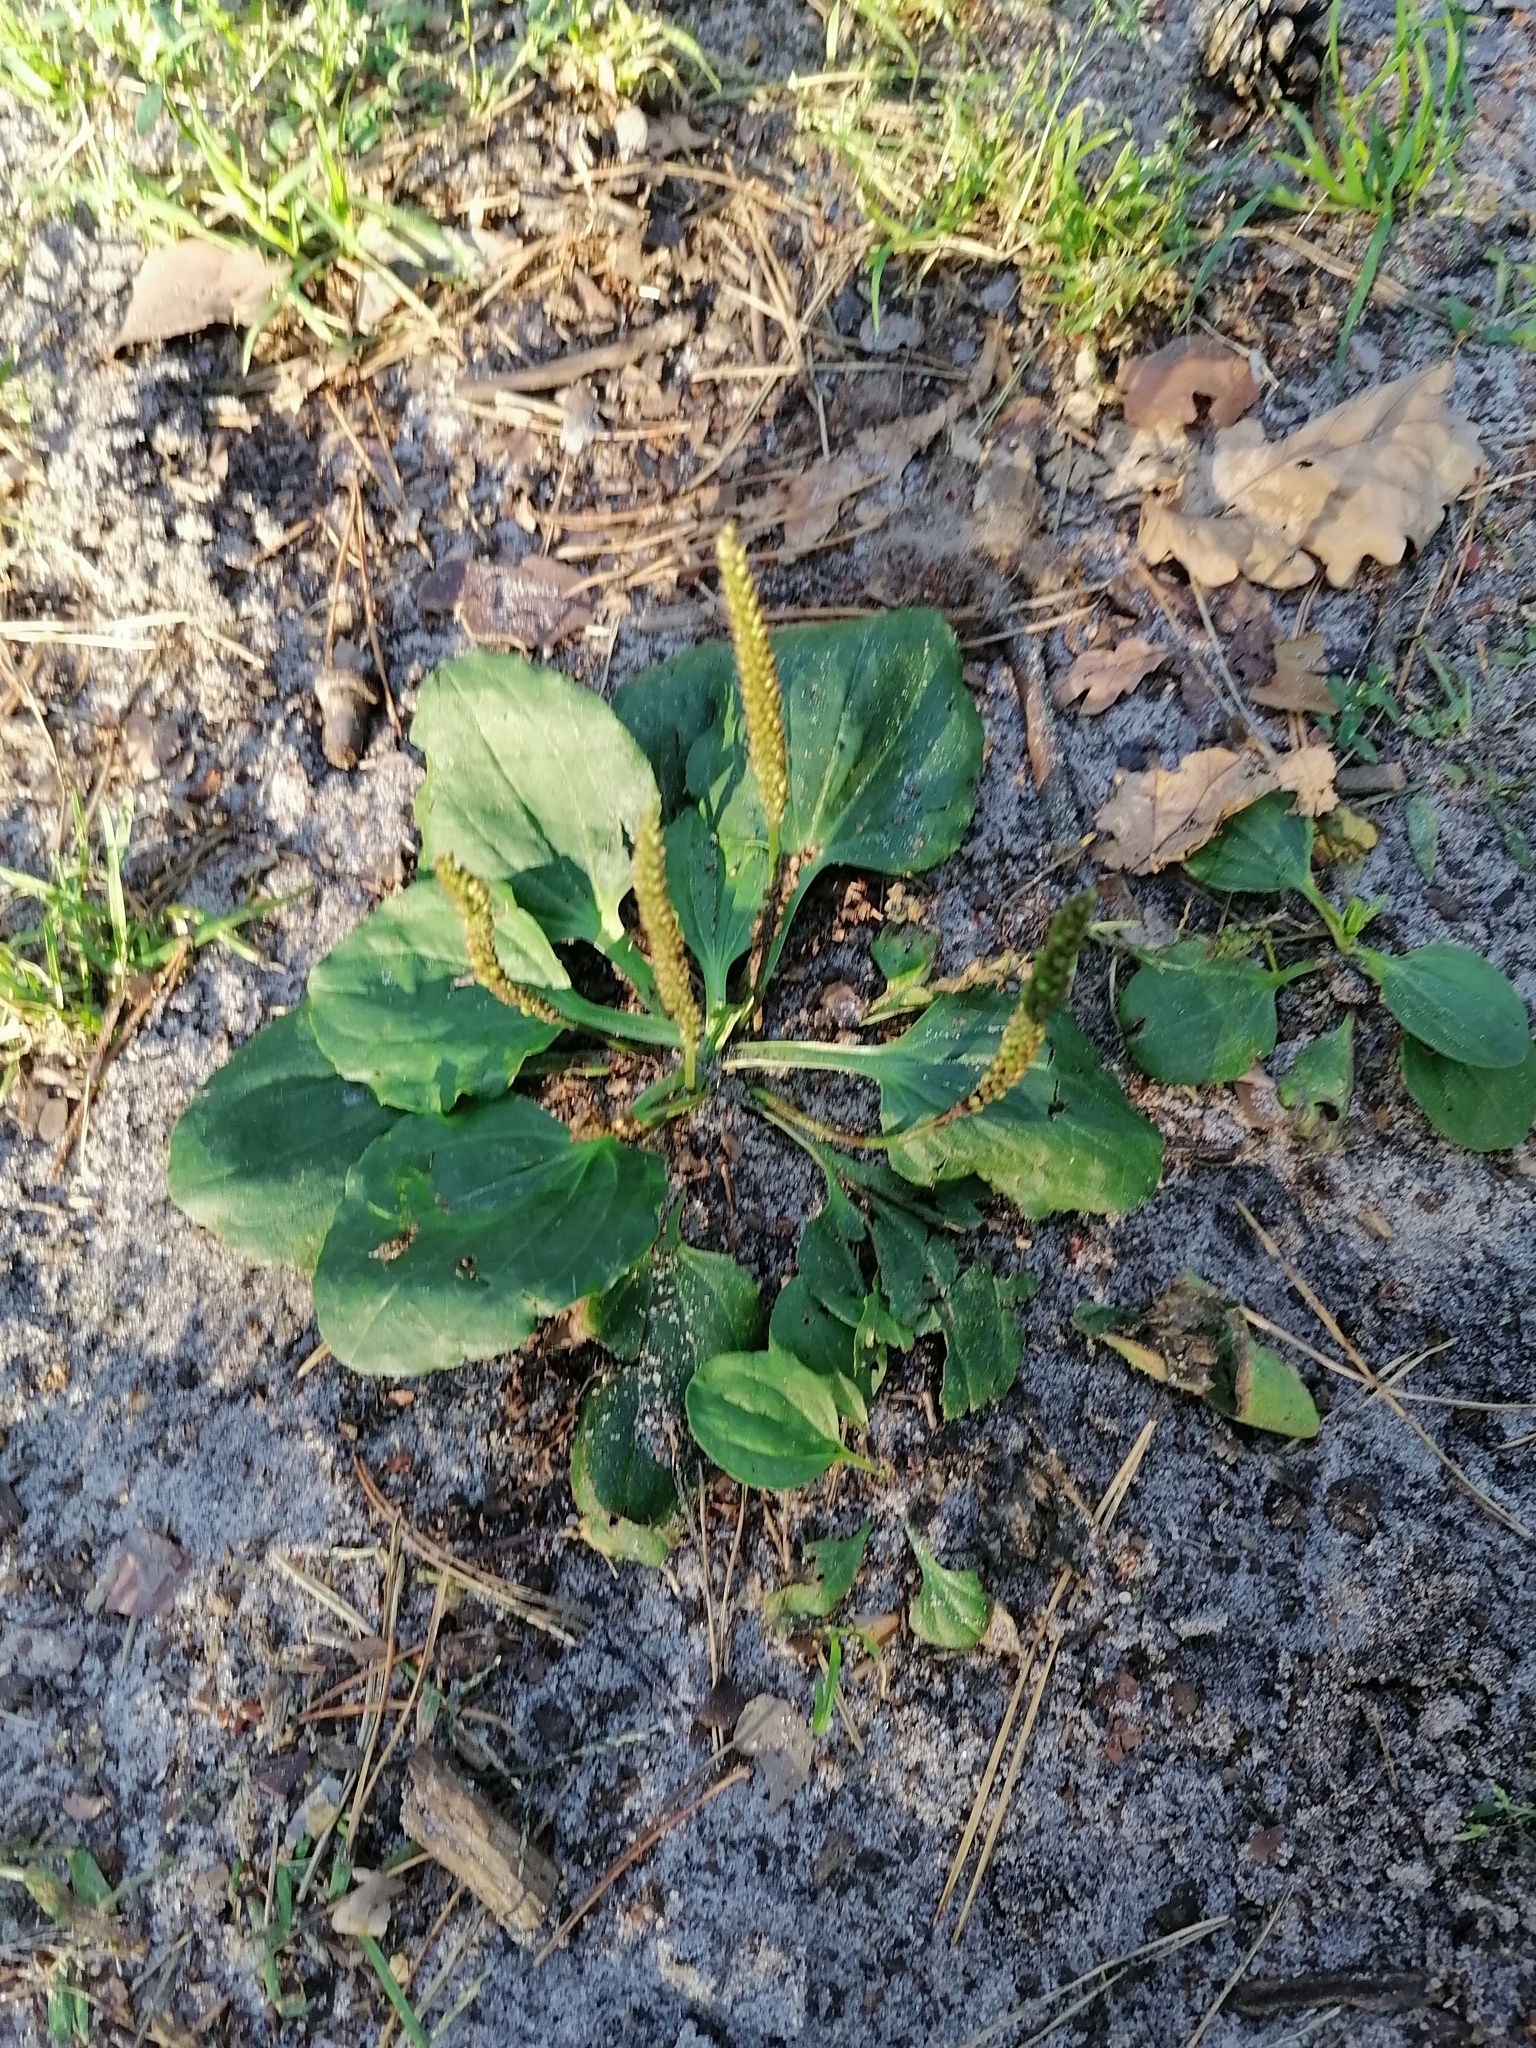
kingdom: Plantae
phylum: Tracheophyta
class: Magnoliopsida
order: Lamiales
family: Plantaginaceae
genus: Plantago
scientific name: Plantago major
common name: Common plantain
